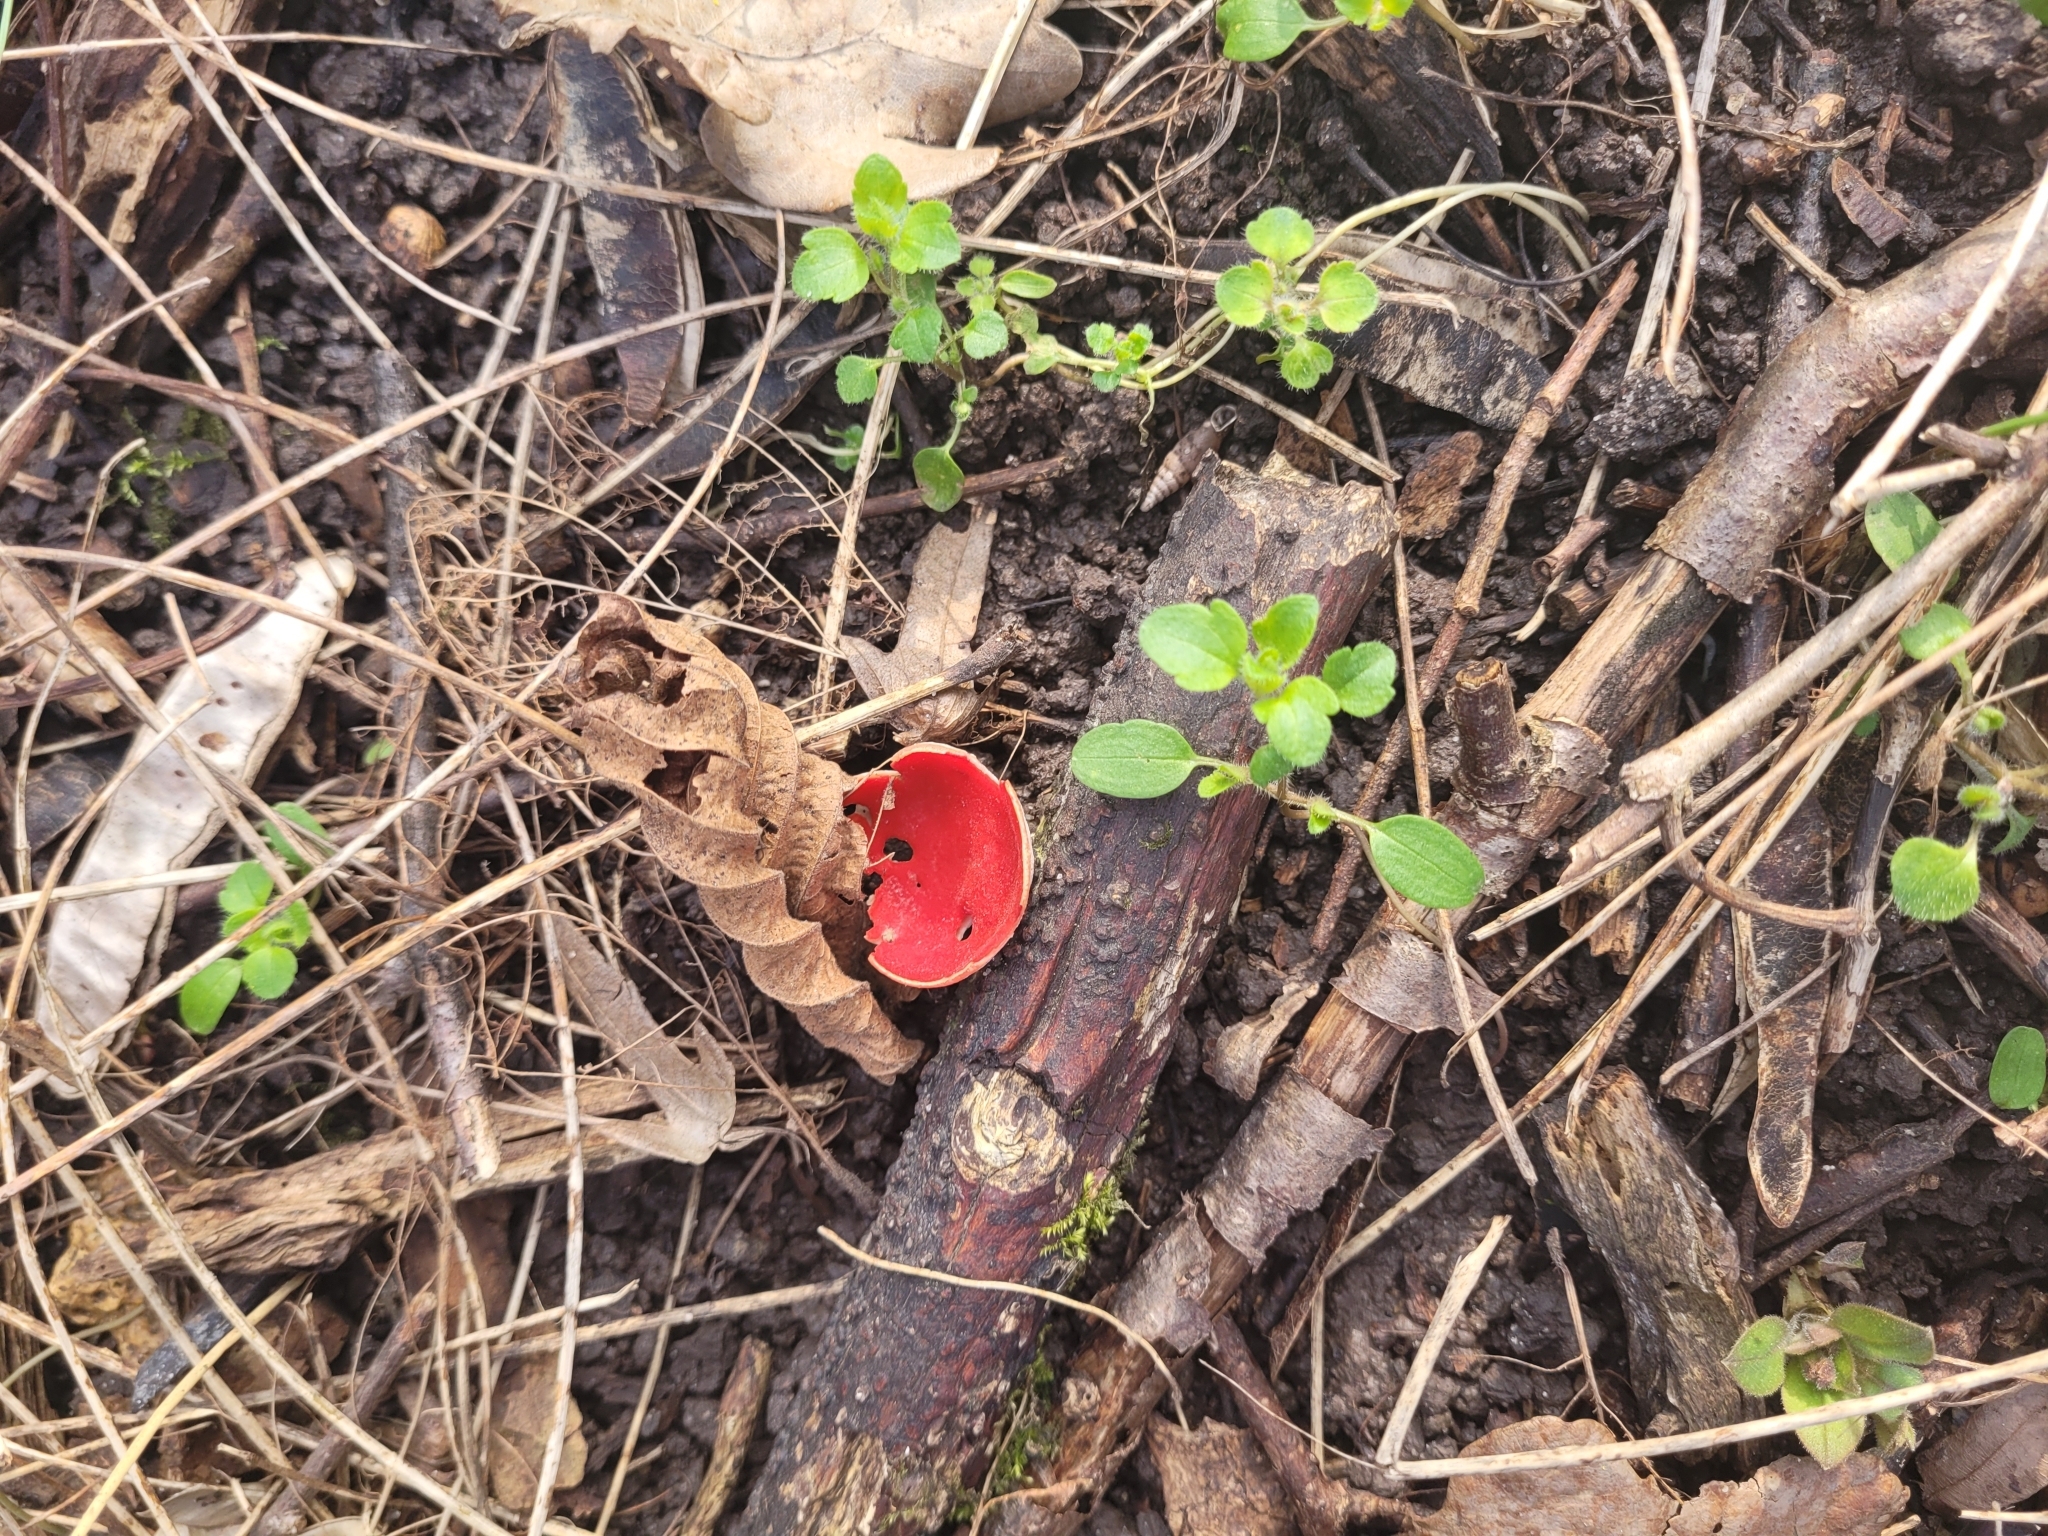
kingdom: Fungi
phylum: Ascomycota
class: Pezizomycetes
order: Pezizales
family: Sarcoscyphaceae
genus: Sarcoscypha
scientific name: Sarcoscypha
